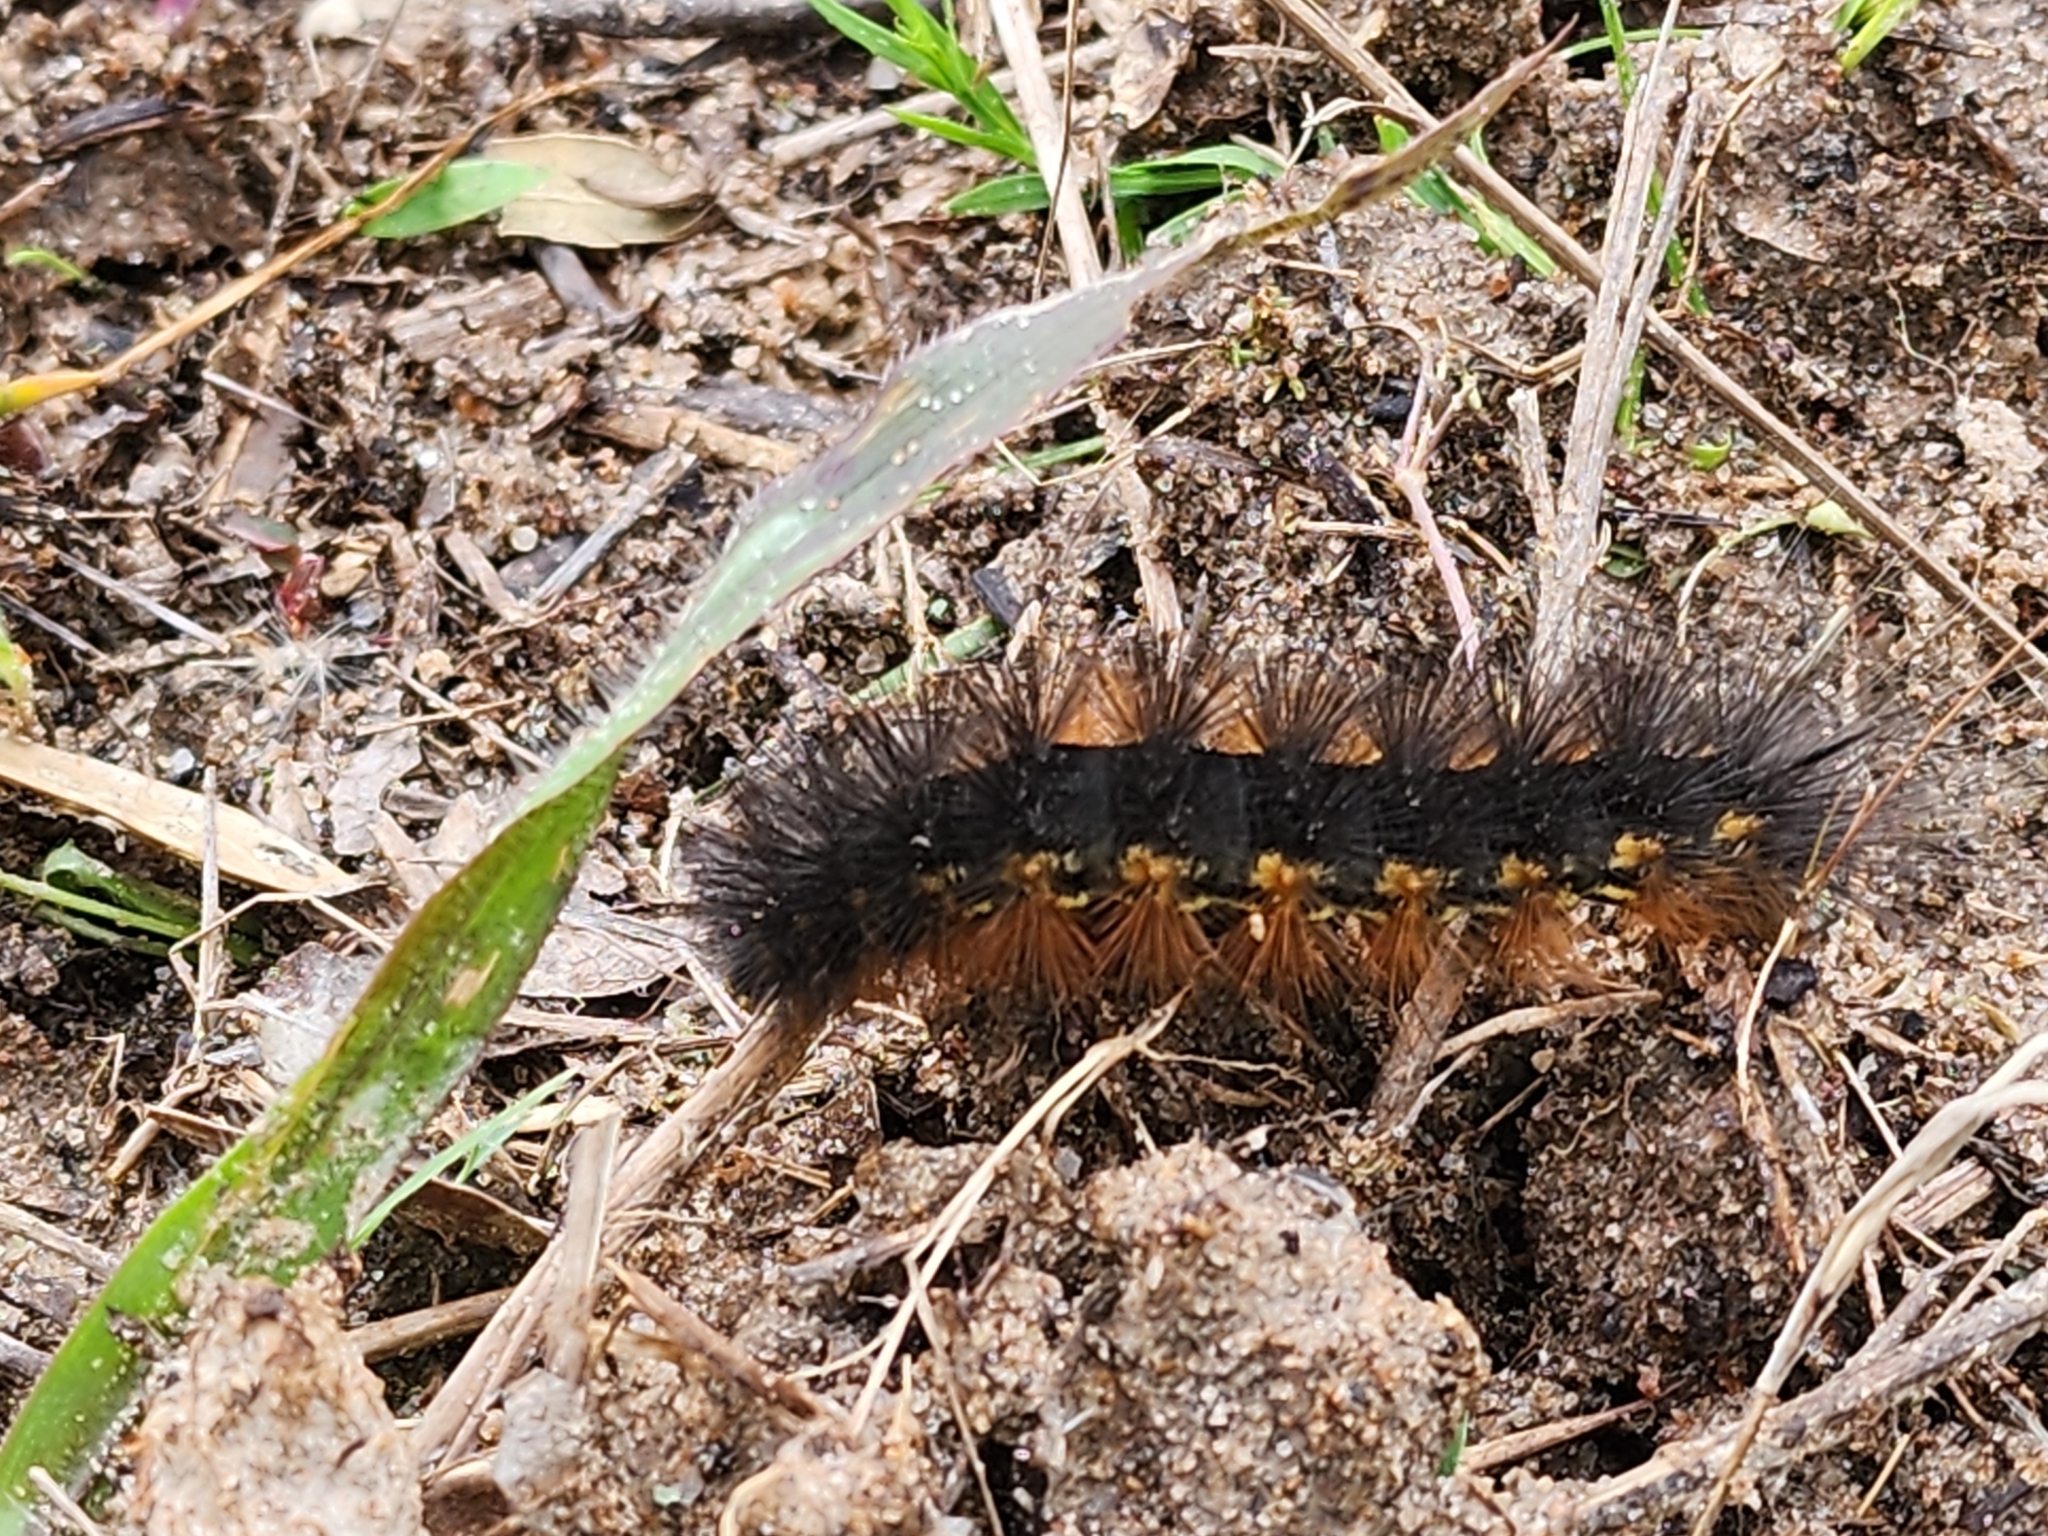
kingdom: Animalia
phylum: Arthropoda
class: Insecta
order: Lepidoptera
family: Erebidae
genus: Estigmene
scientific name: Estigmene acrea
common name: Salt marsh moth
